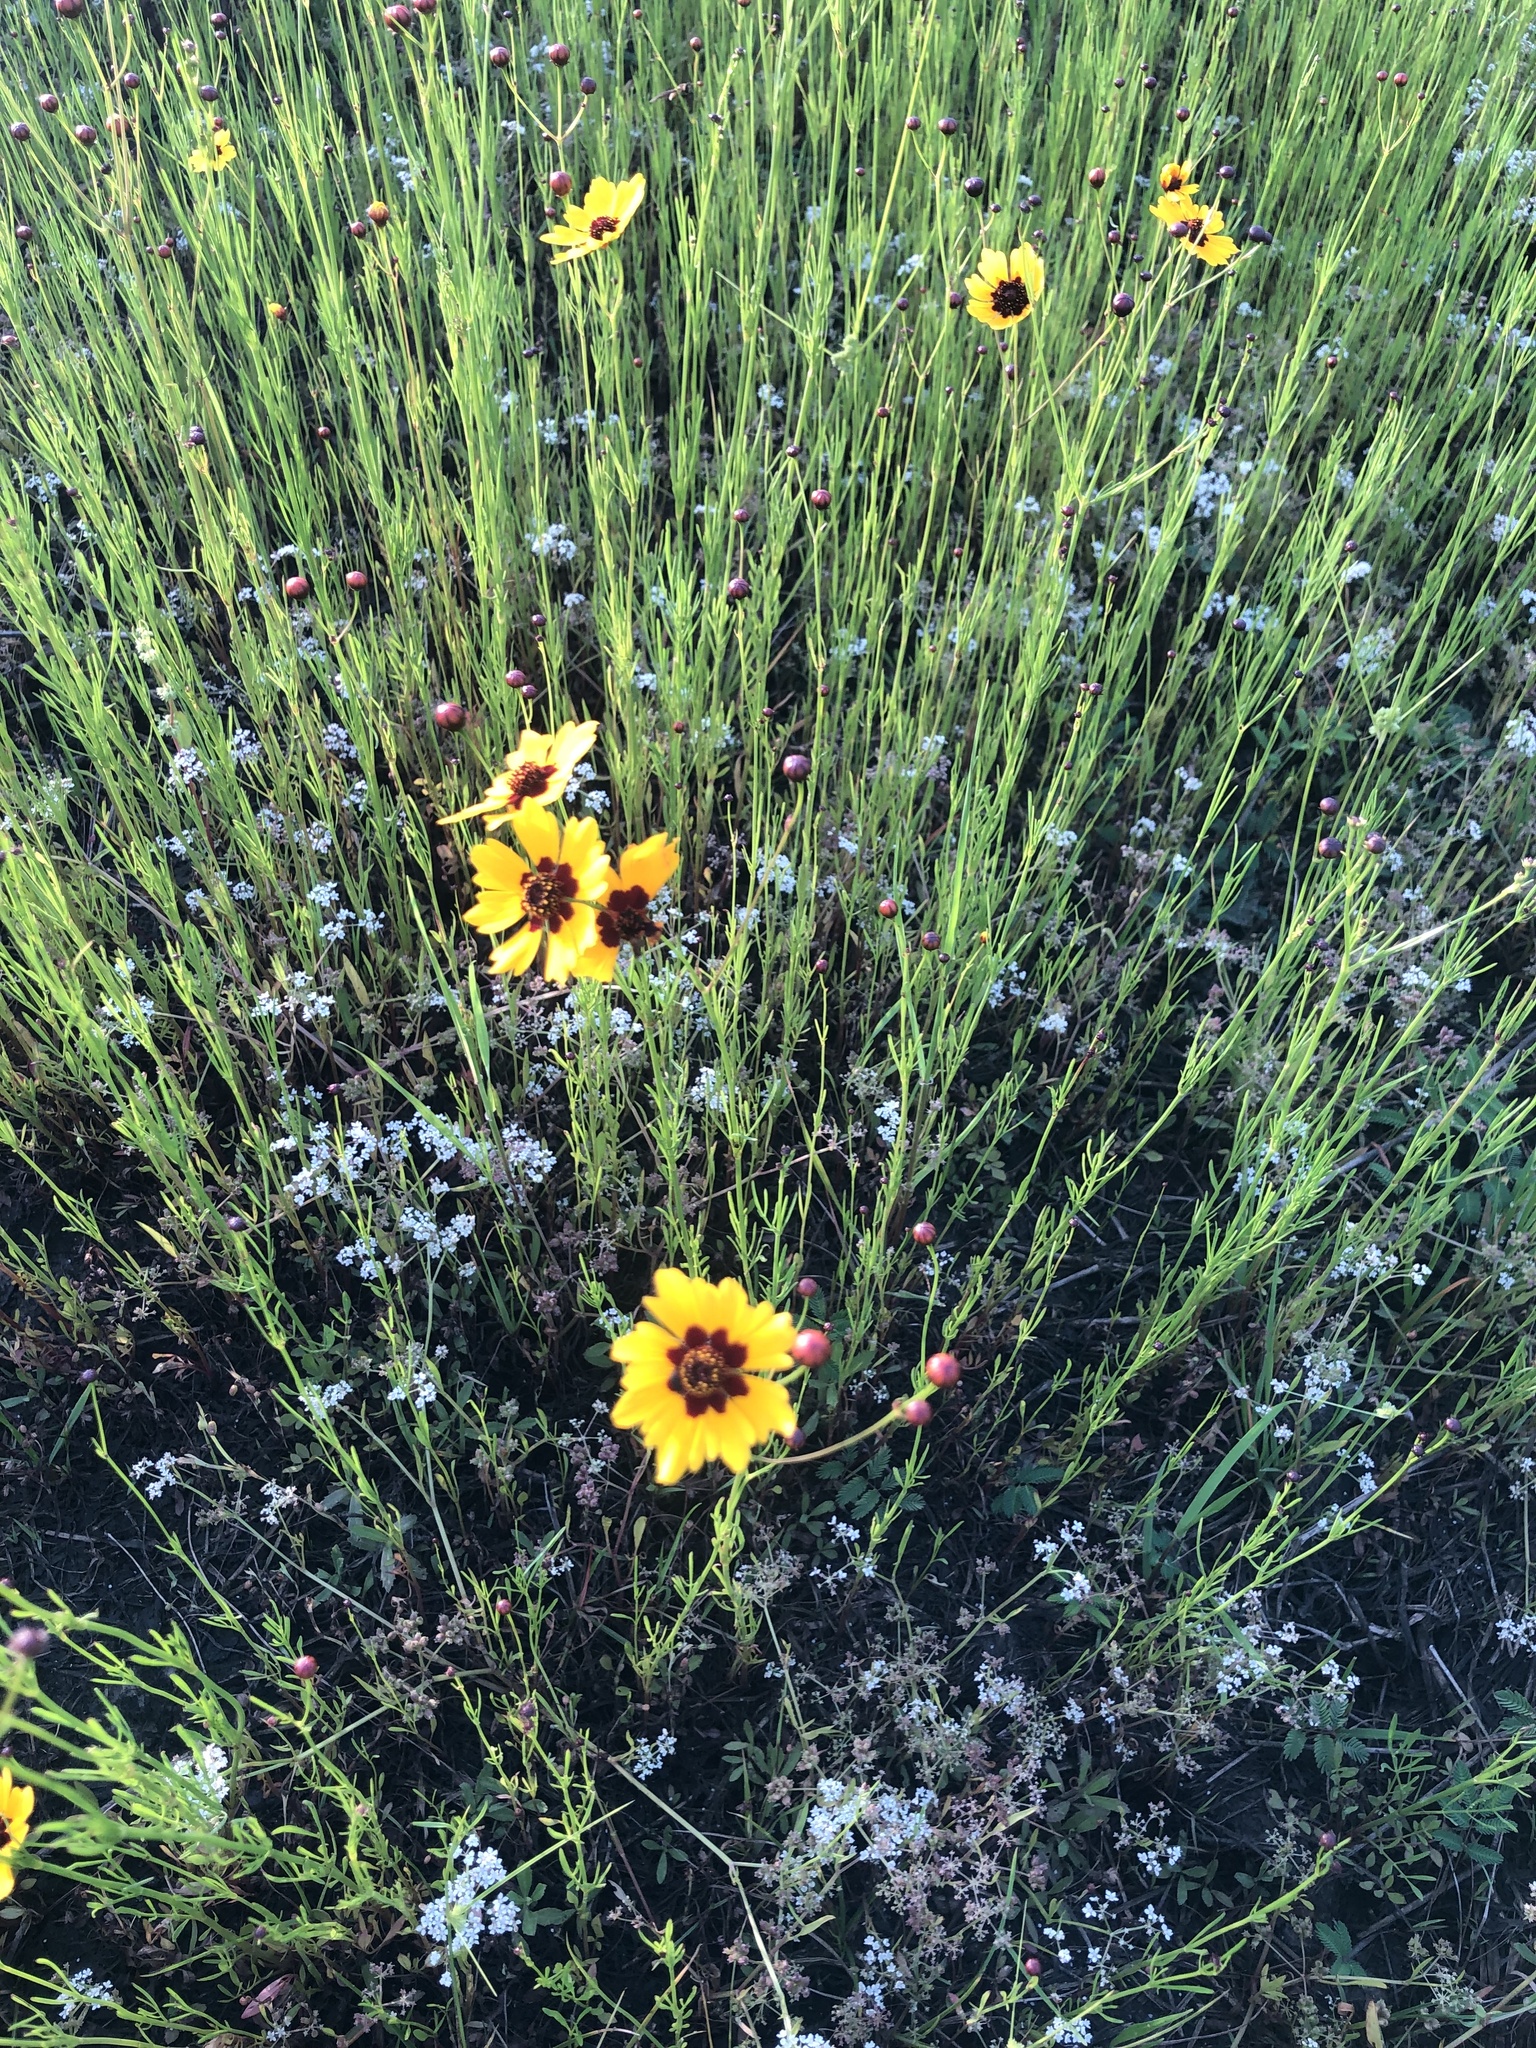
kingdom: Plantae
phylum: Tracheophyta
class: Magnoliopsida
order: Asterales
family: Asteraceae
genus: Coreopsis
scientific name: Coreopsis tinctoria
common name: Garden tickseed
